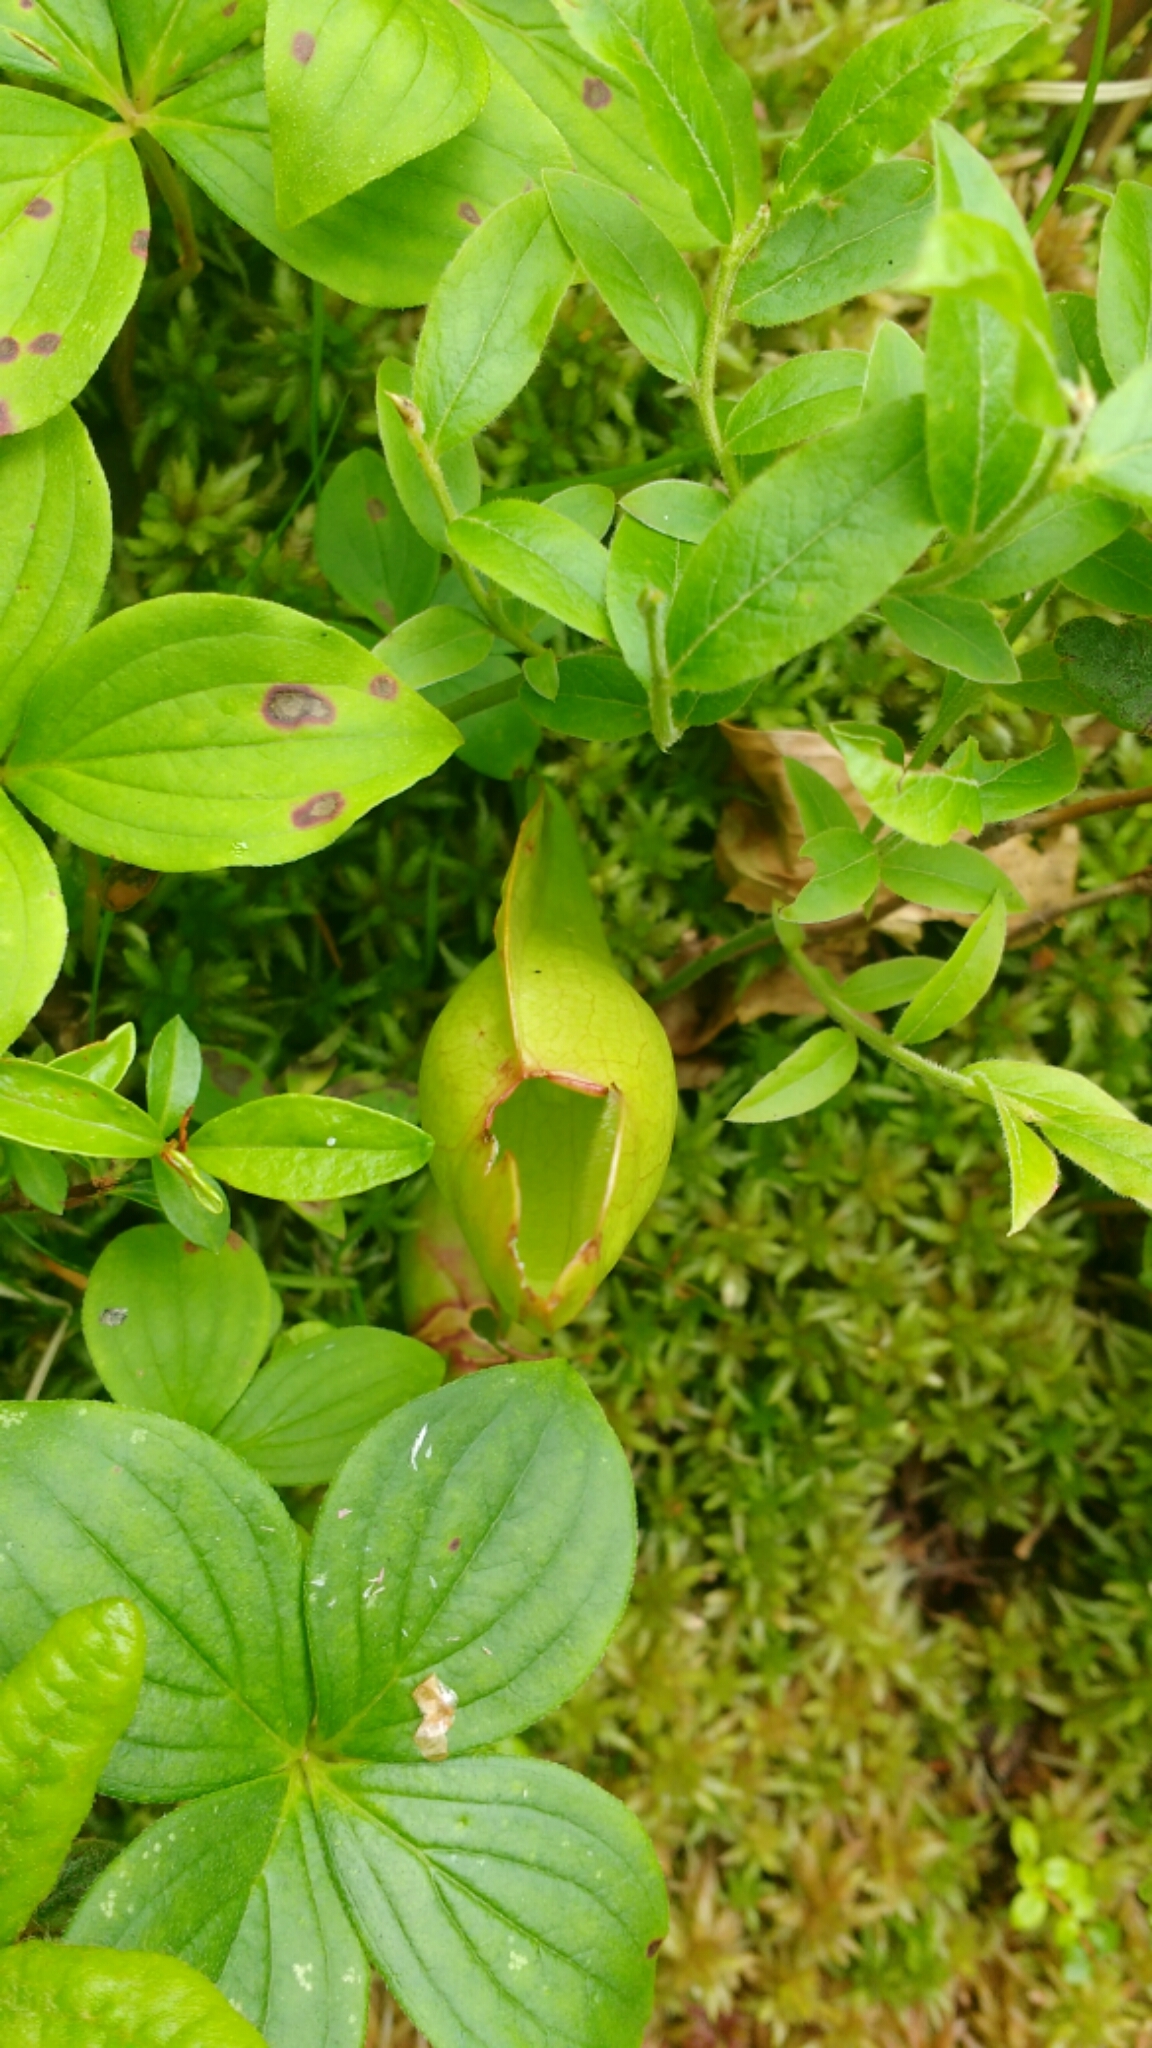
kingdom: Plantae
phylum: Tracheophyta
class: Magnoliopsida
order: Ericales
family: Sarraceniaceae
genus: Sarracenia
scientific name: Sarracenia purpurea
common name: Pitcherplant
